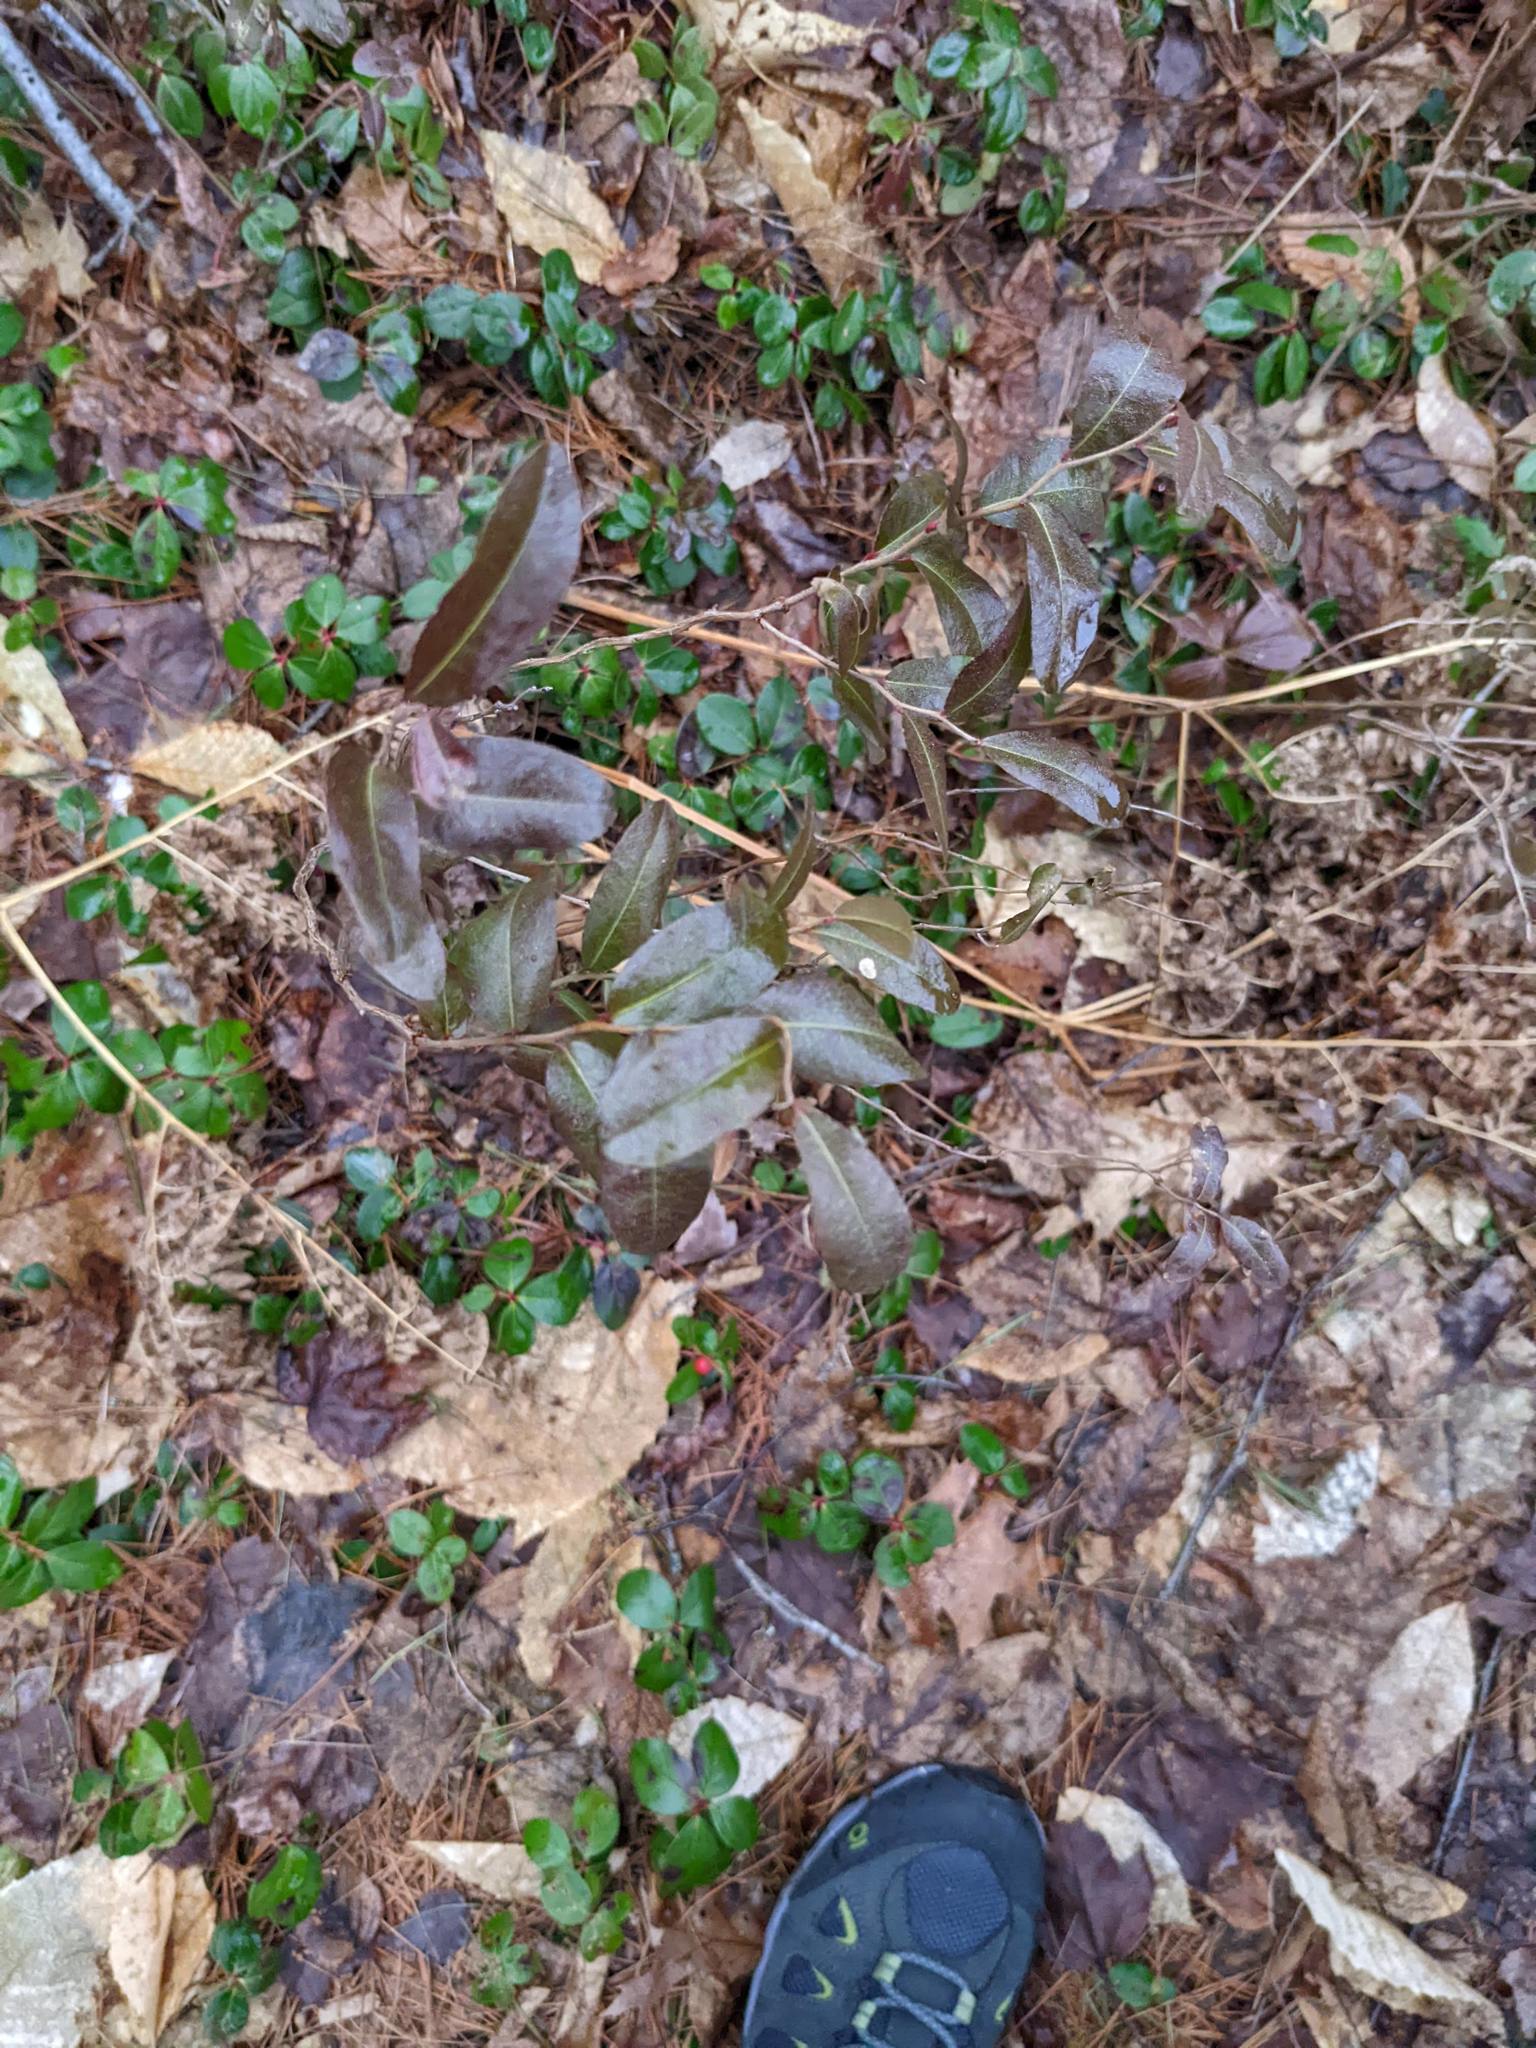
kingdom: Plantae
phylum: Tracheophyta
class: Magnoliopsida
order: Ericales
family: Ericaceae
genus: Chamaedaphne
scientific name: Chamaedaphne calyculata
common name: Leatherleaf
